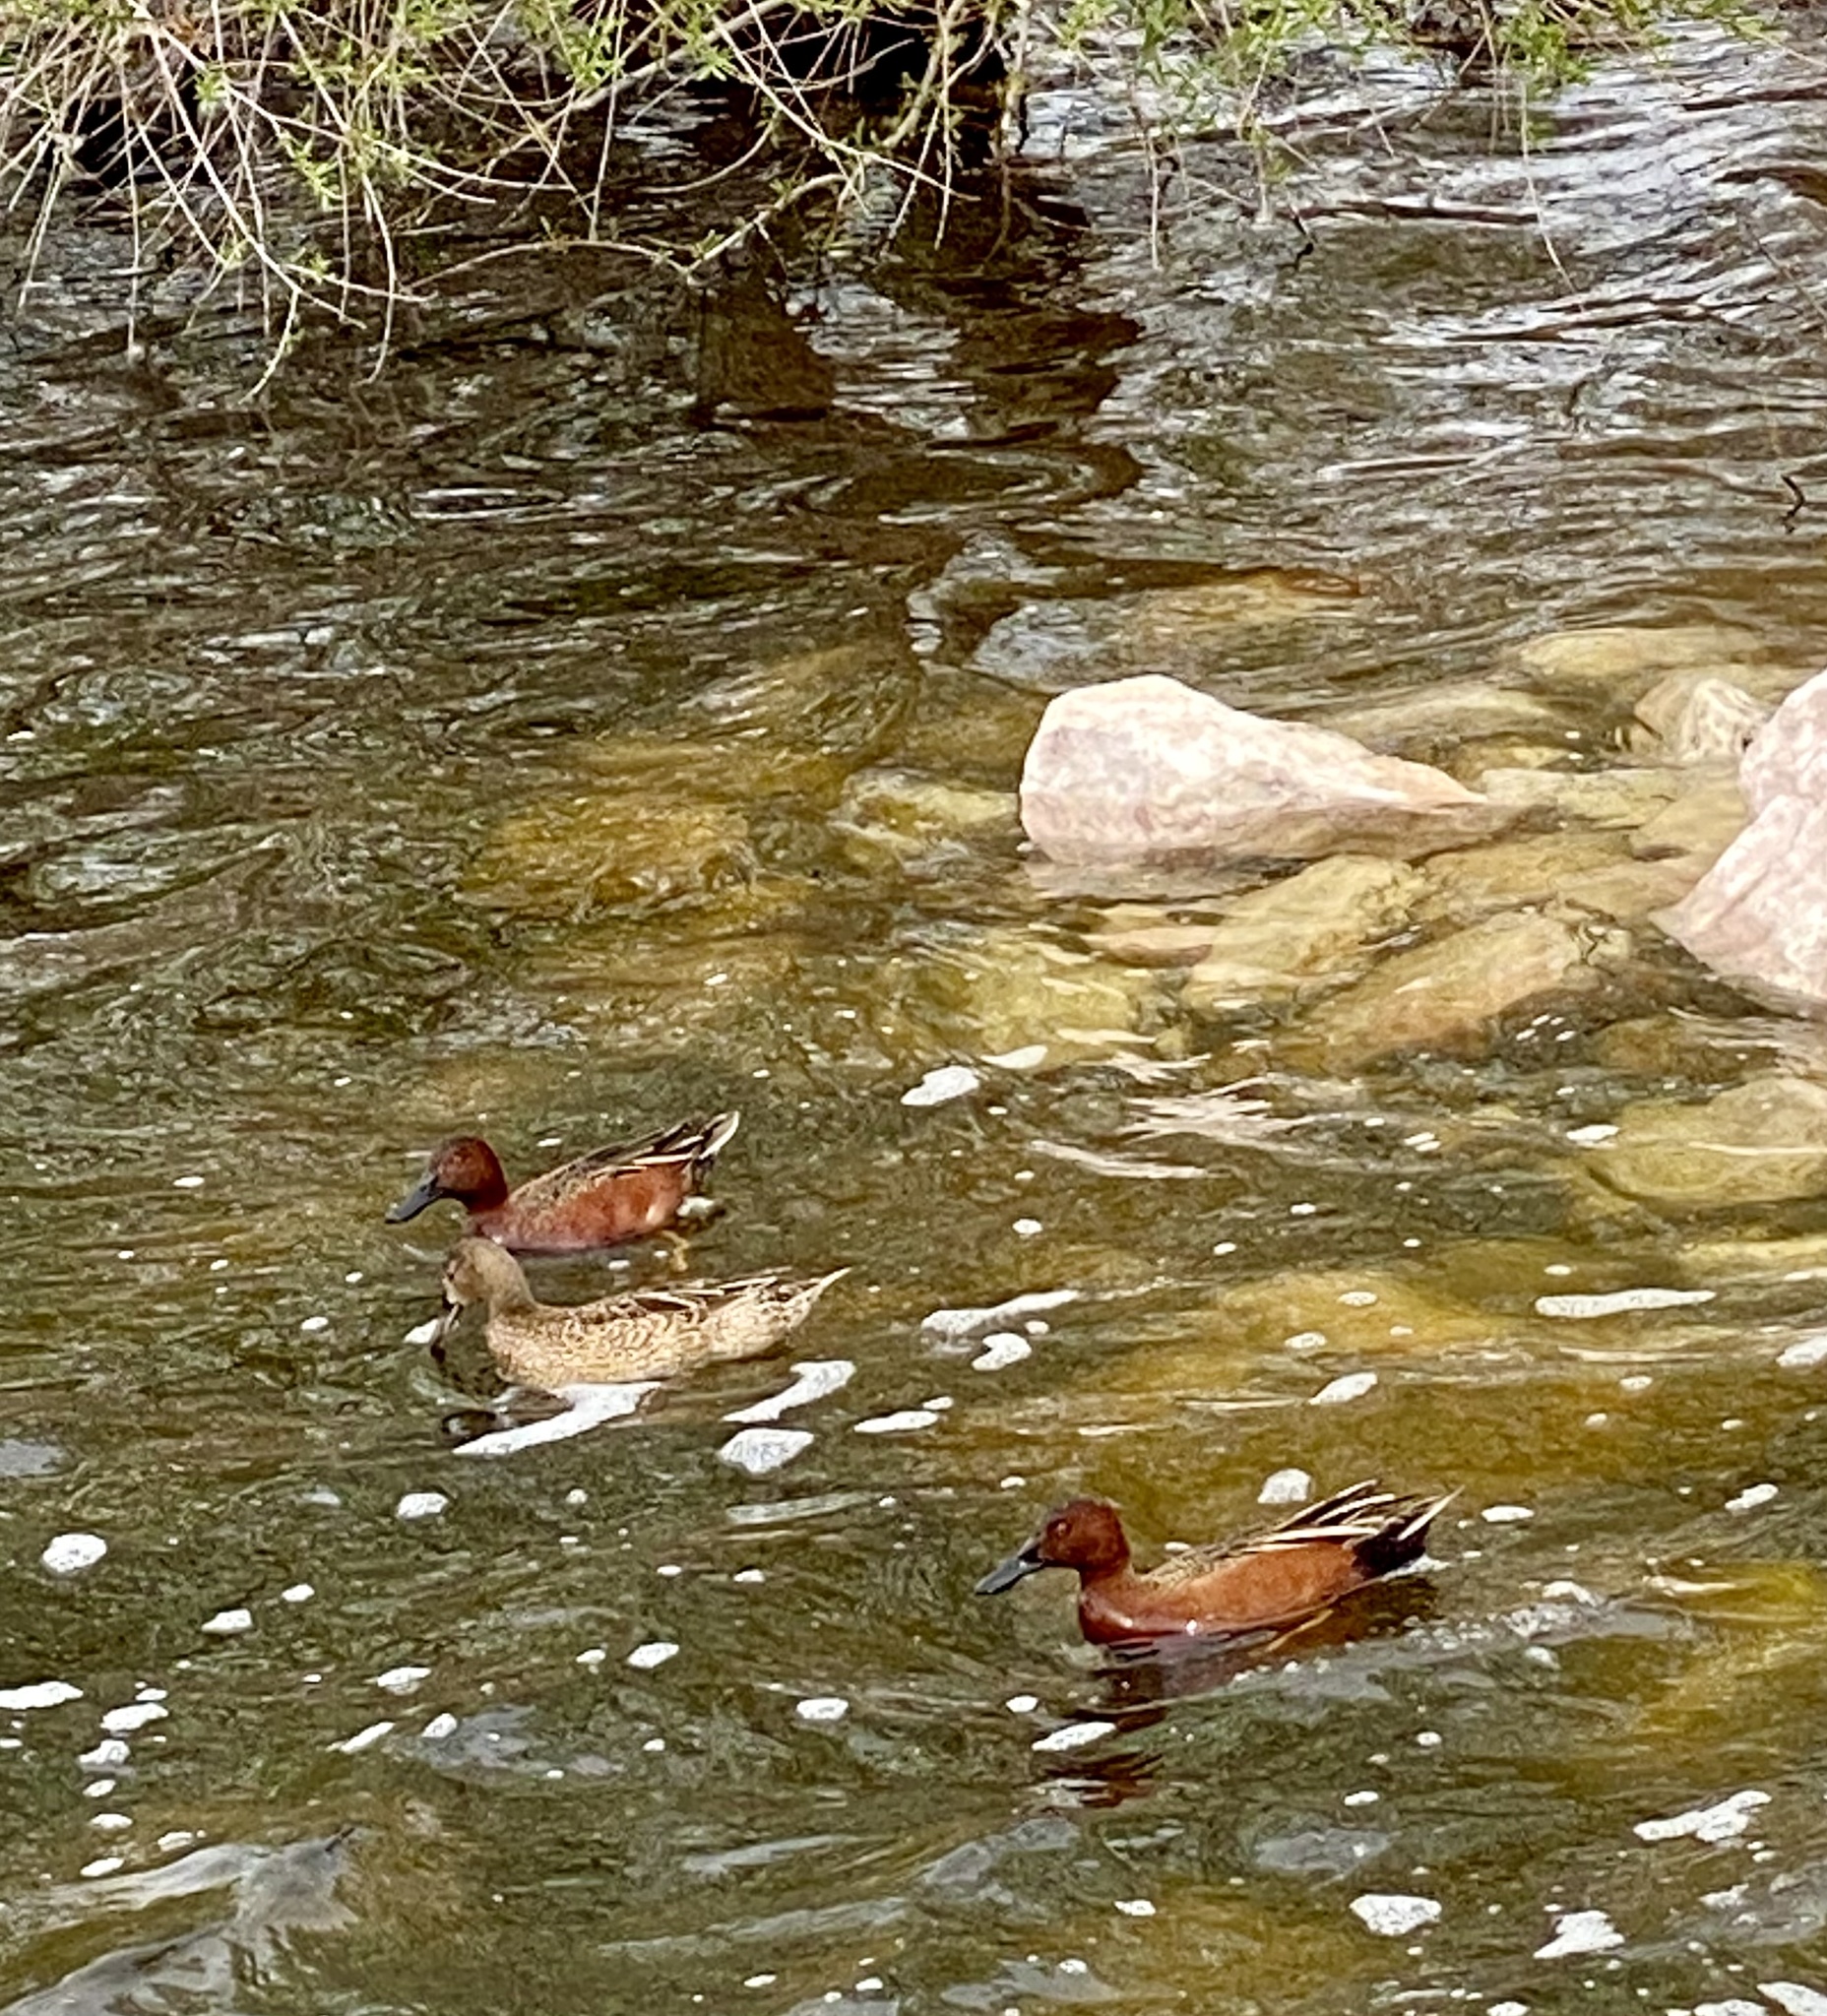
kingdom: Animalia
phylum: Chordata
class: Aves
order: Anseriformes
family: Anatidae
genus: Spatula
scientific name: Spatula cyanoptera
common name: Cinnamon teal
